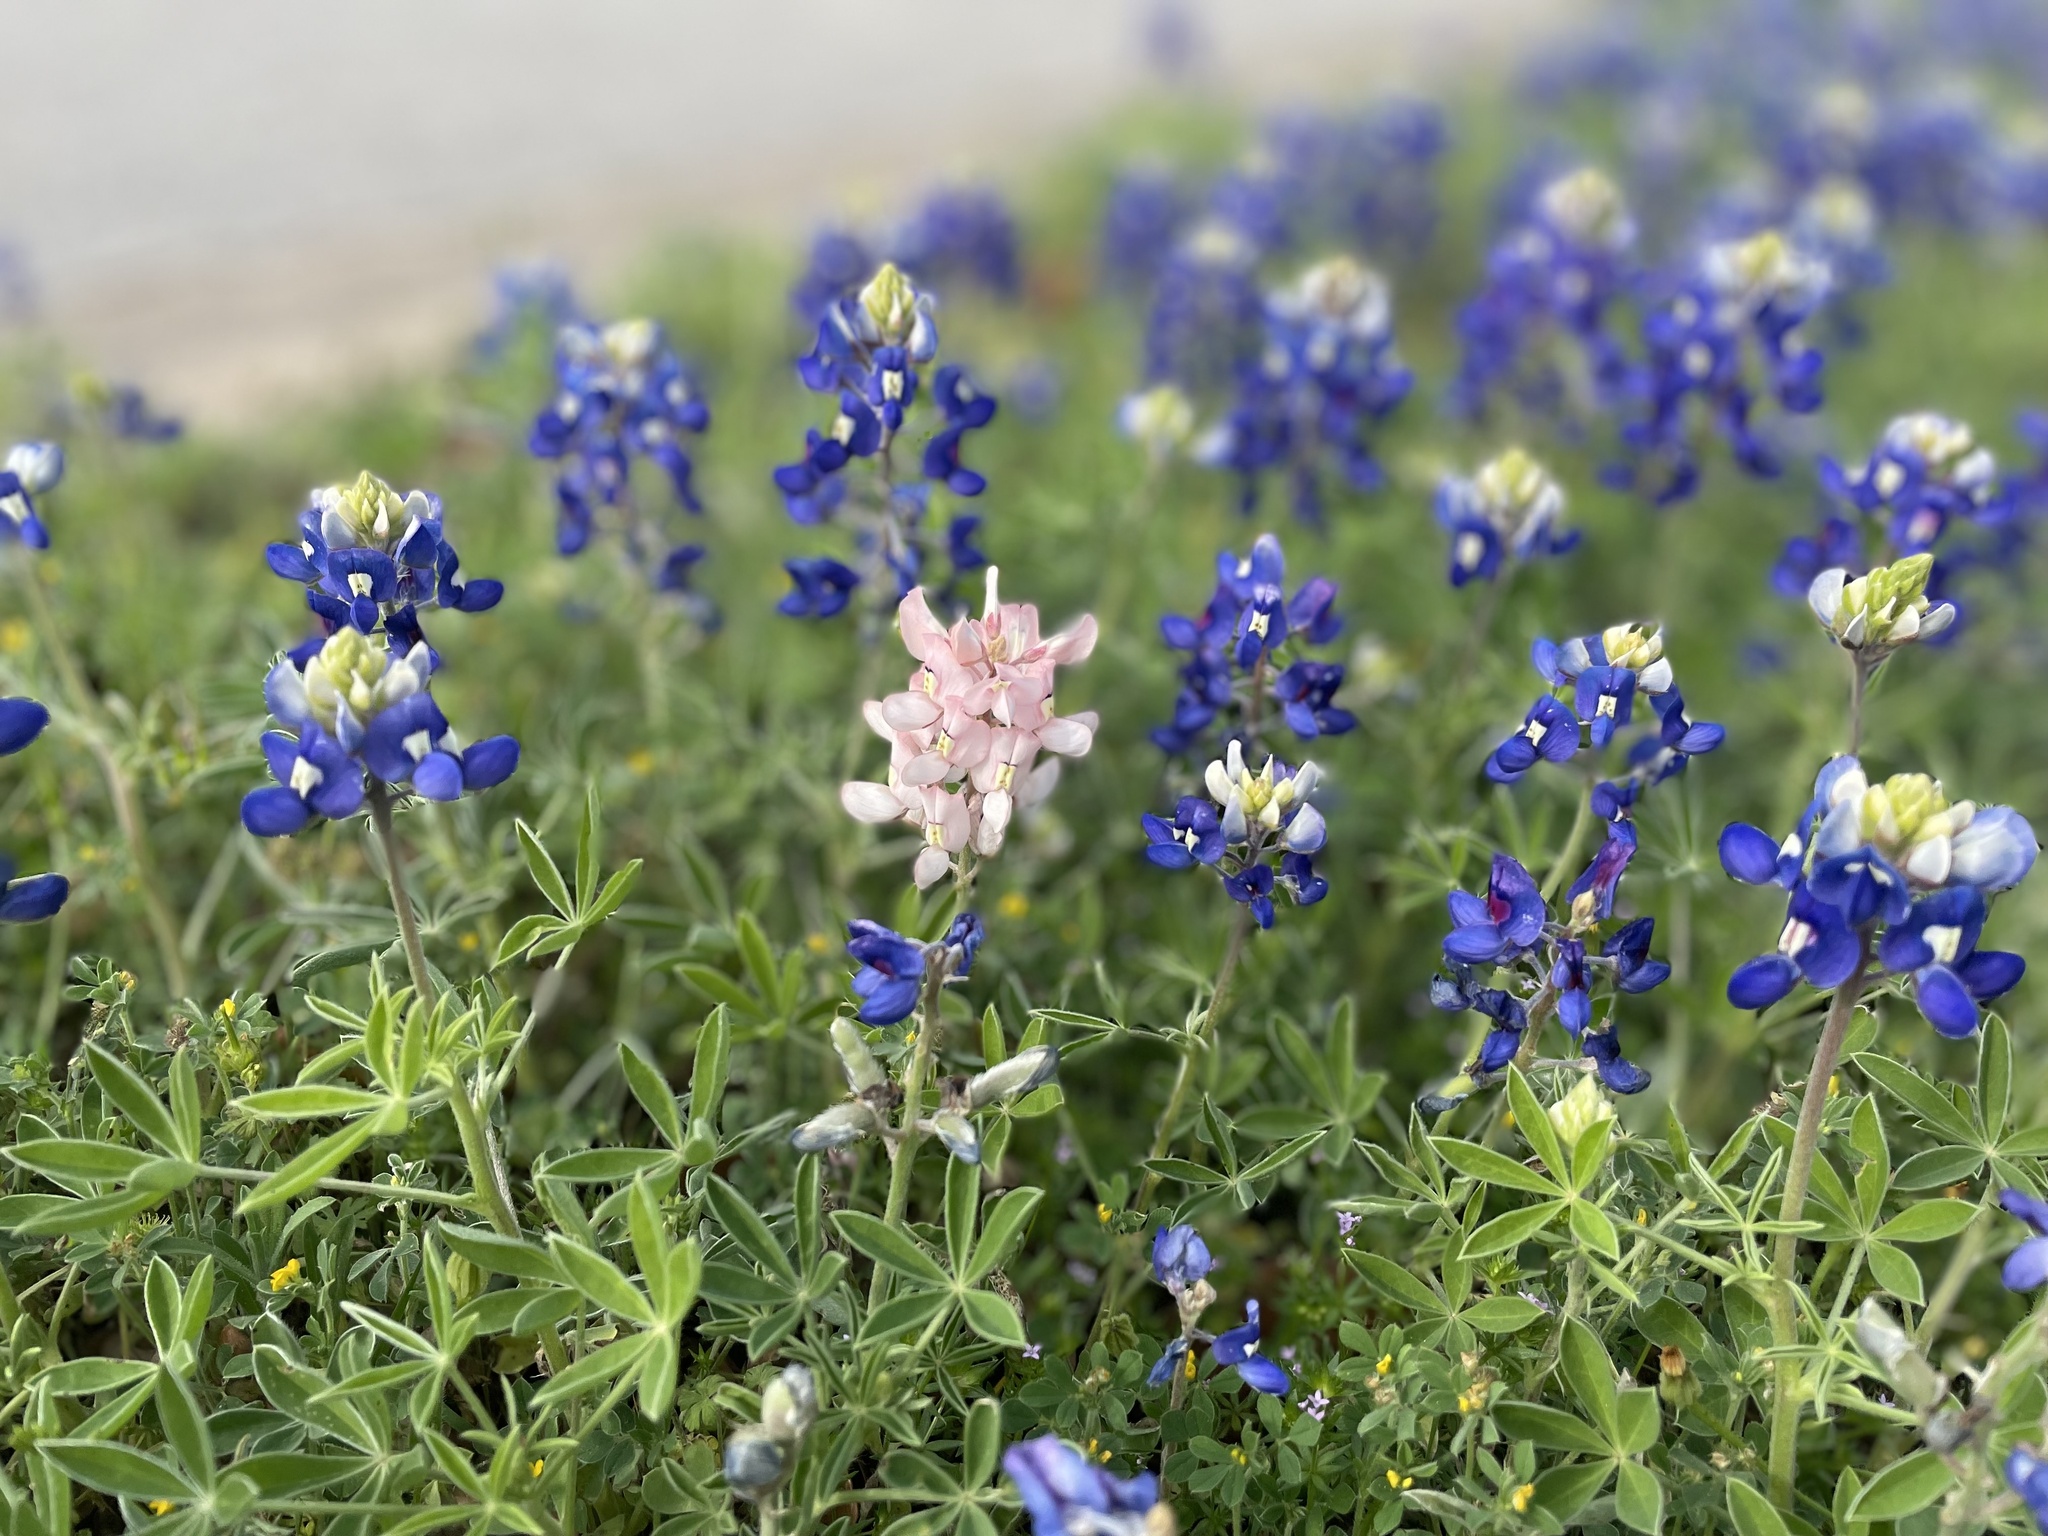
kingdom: Plantae
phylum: Tracheophyta
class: Magnoliopsida
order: Fabales
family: Fabaceae
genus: Lupinus
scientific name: Lupinus texensis
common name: Texas bluebonnet
